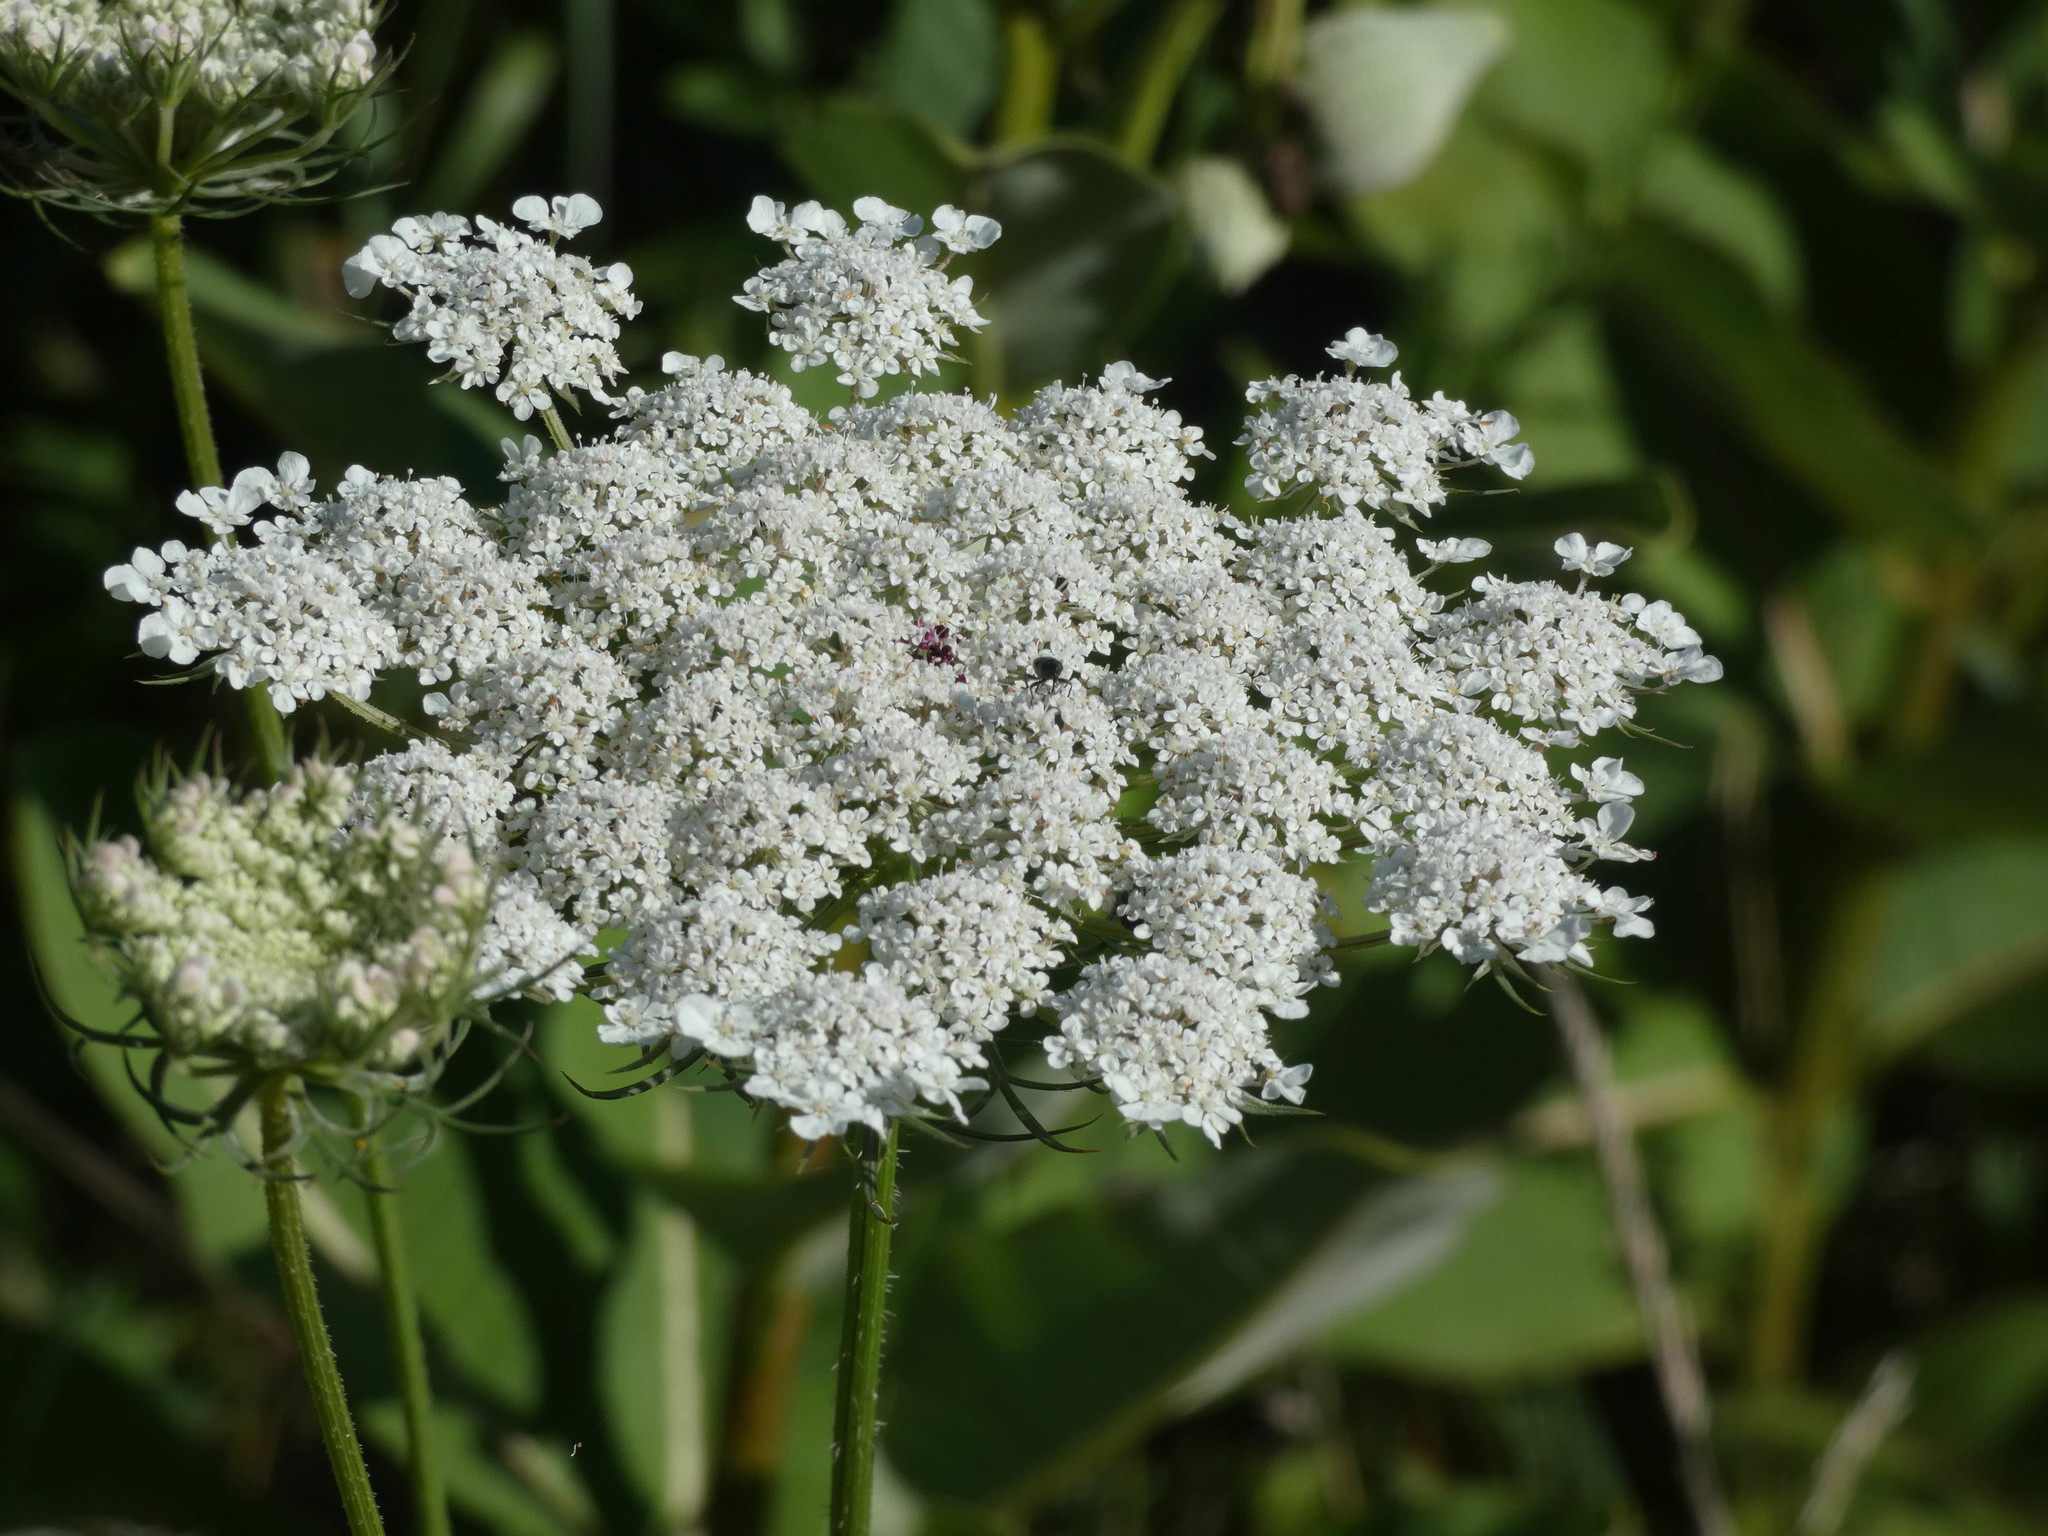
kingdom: Plantae
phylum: Tracheophyta
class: Magnoliopsida
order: Apiales
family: Apiaceae
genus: Daucus
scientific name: Daucus carota
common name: Wild carrot
